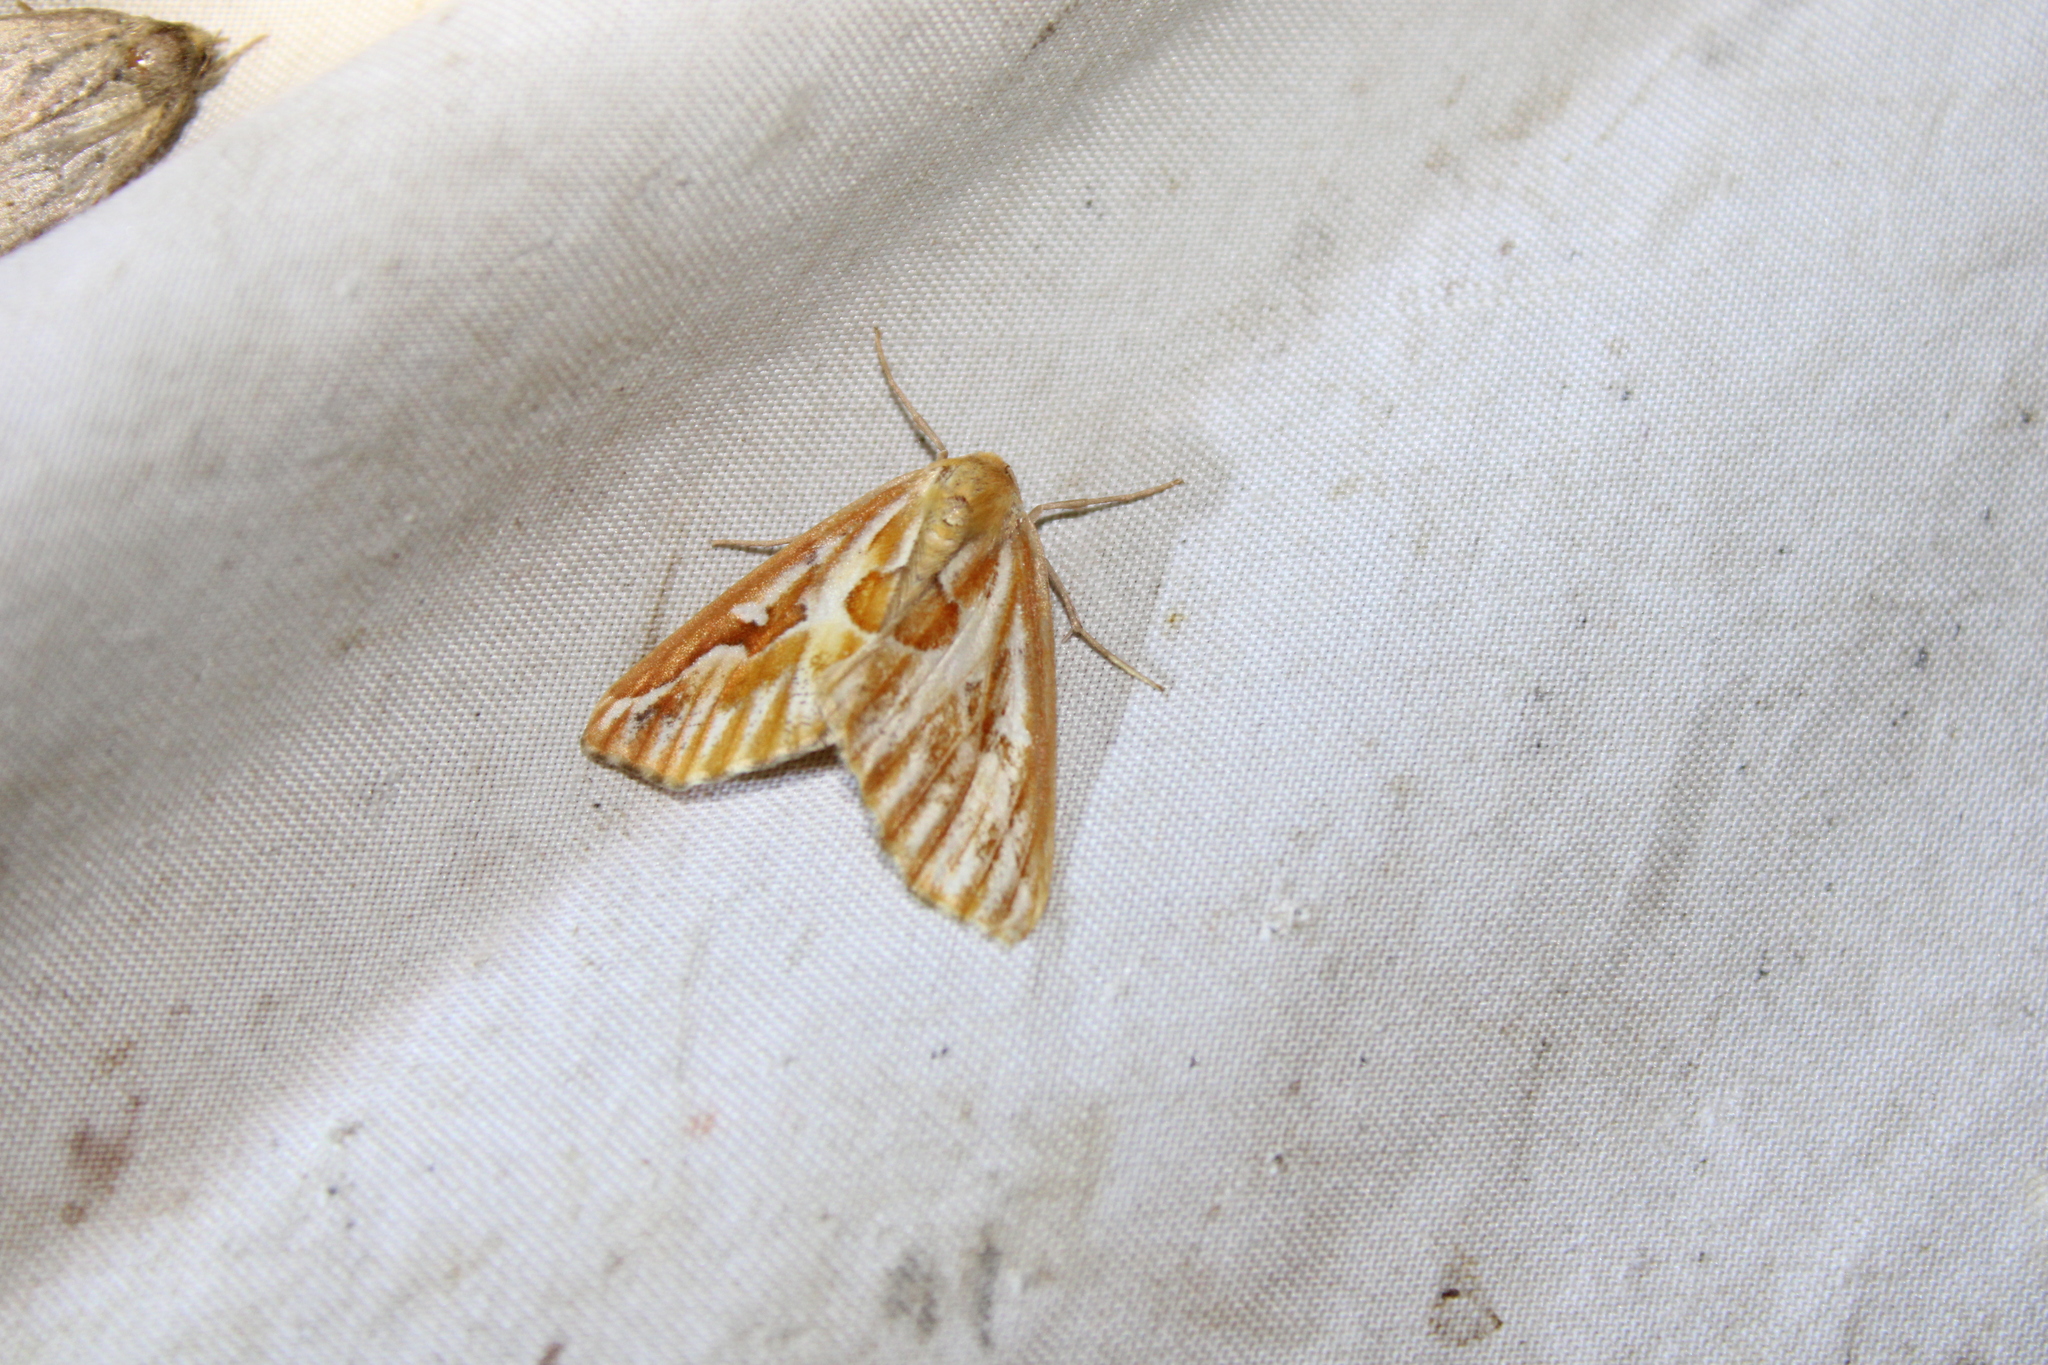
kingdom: Animalia
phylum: Arthropoda
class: Insecta
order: Lepidoptera
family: Geometridae
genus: Caripeta
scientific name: Caripeta piniata
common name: Northern pine looper moth
